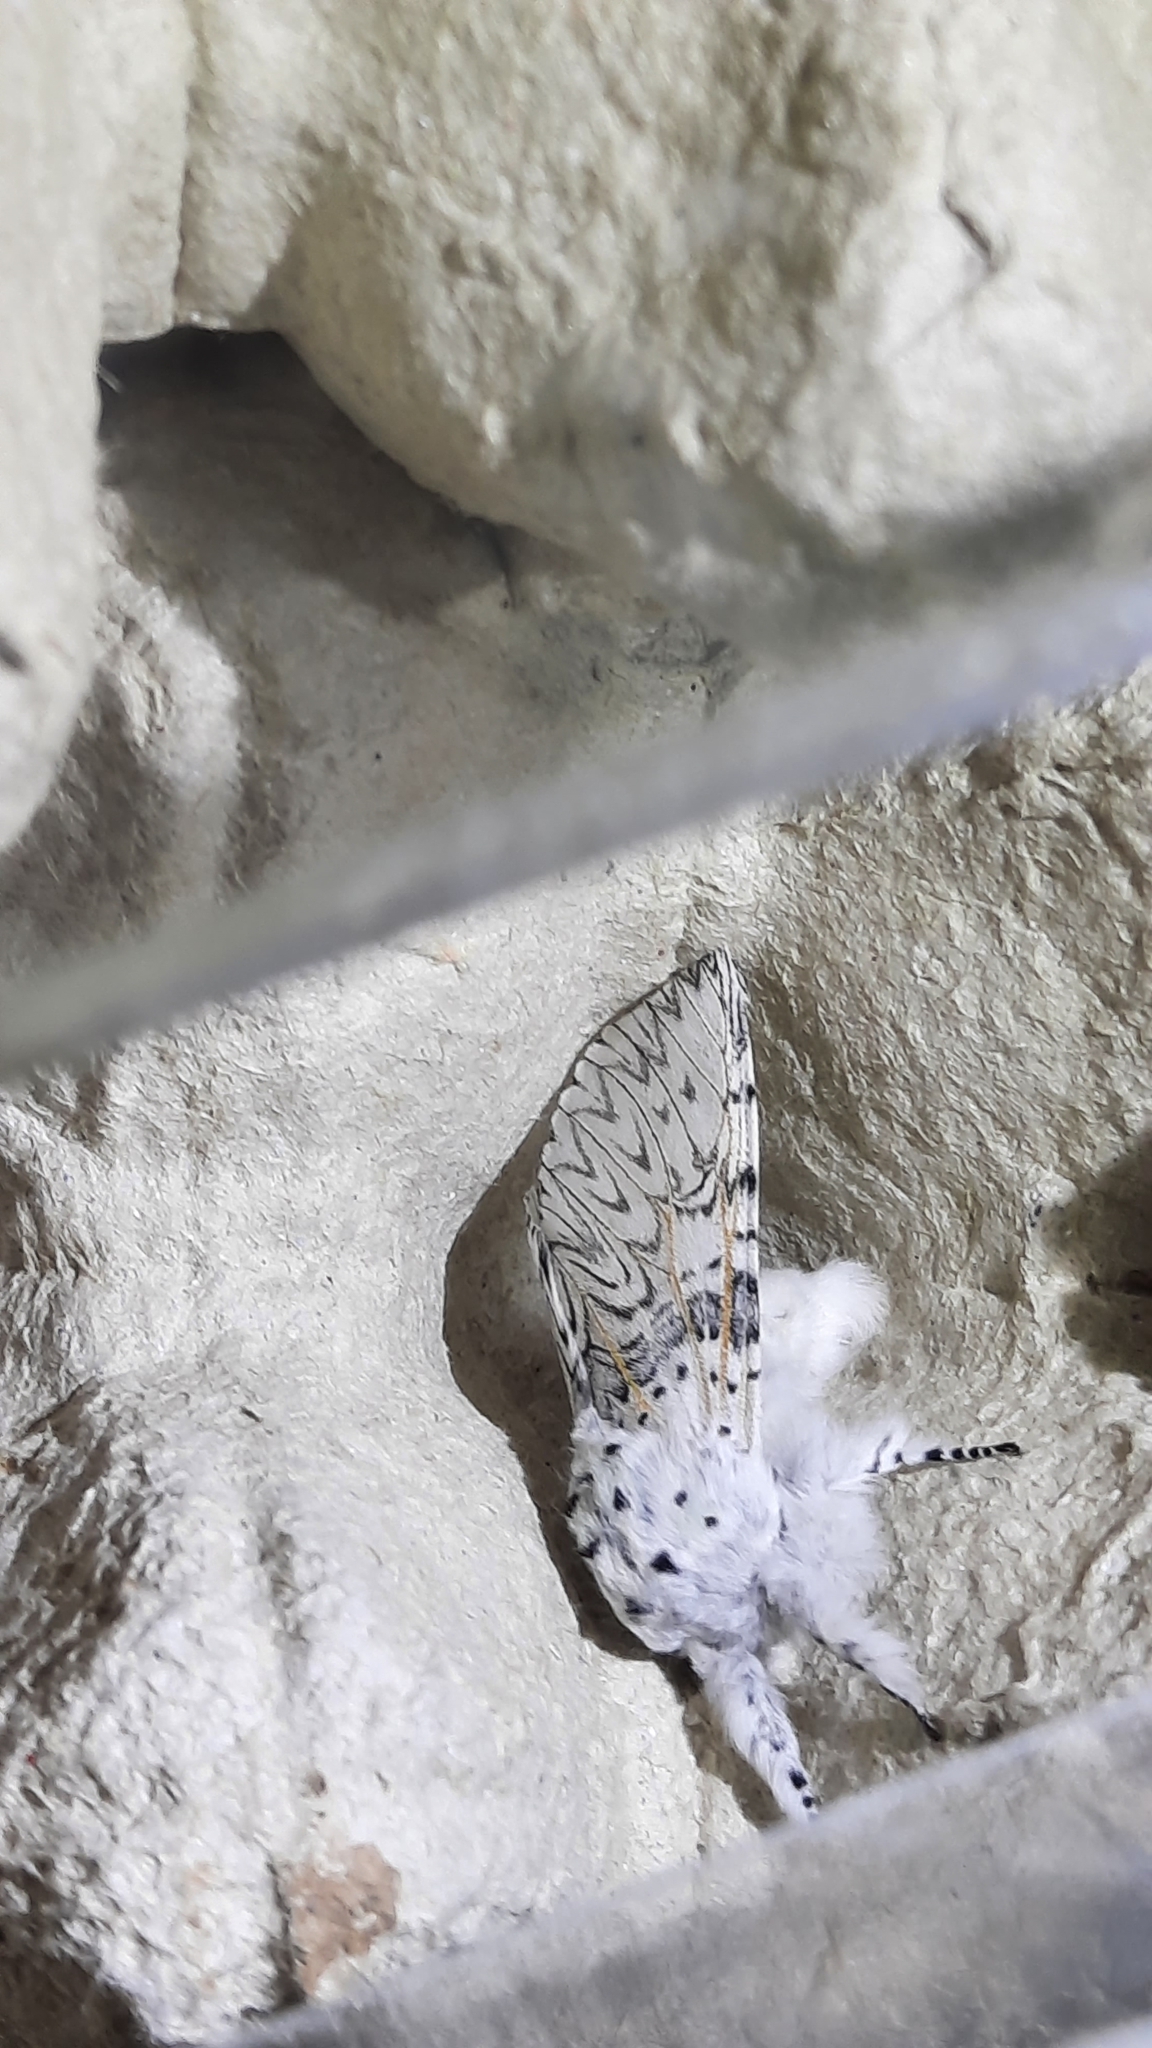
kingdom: Animalia
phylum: Arthropoda
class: Insecta
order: Lepidoptera
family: Notodontidae
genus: Cerura
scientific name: Cerura vinula
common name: Puss moth
